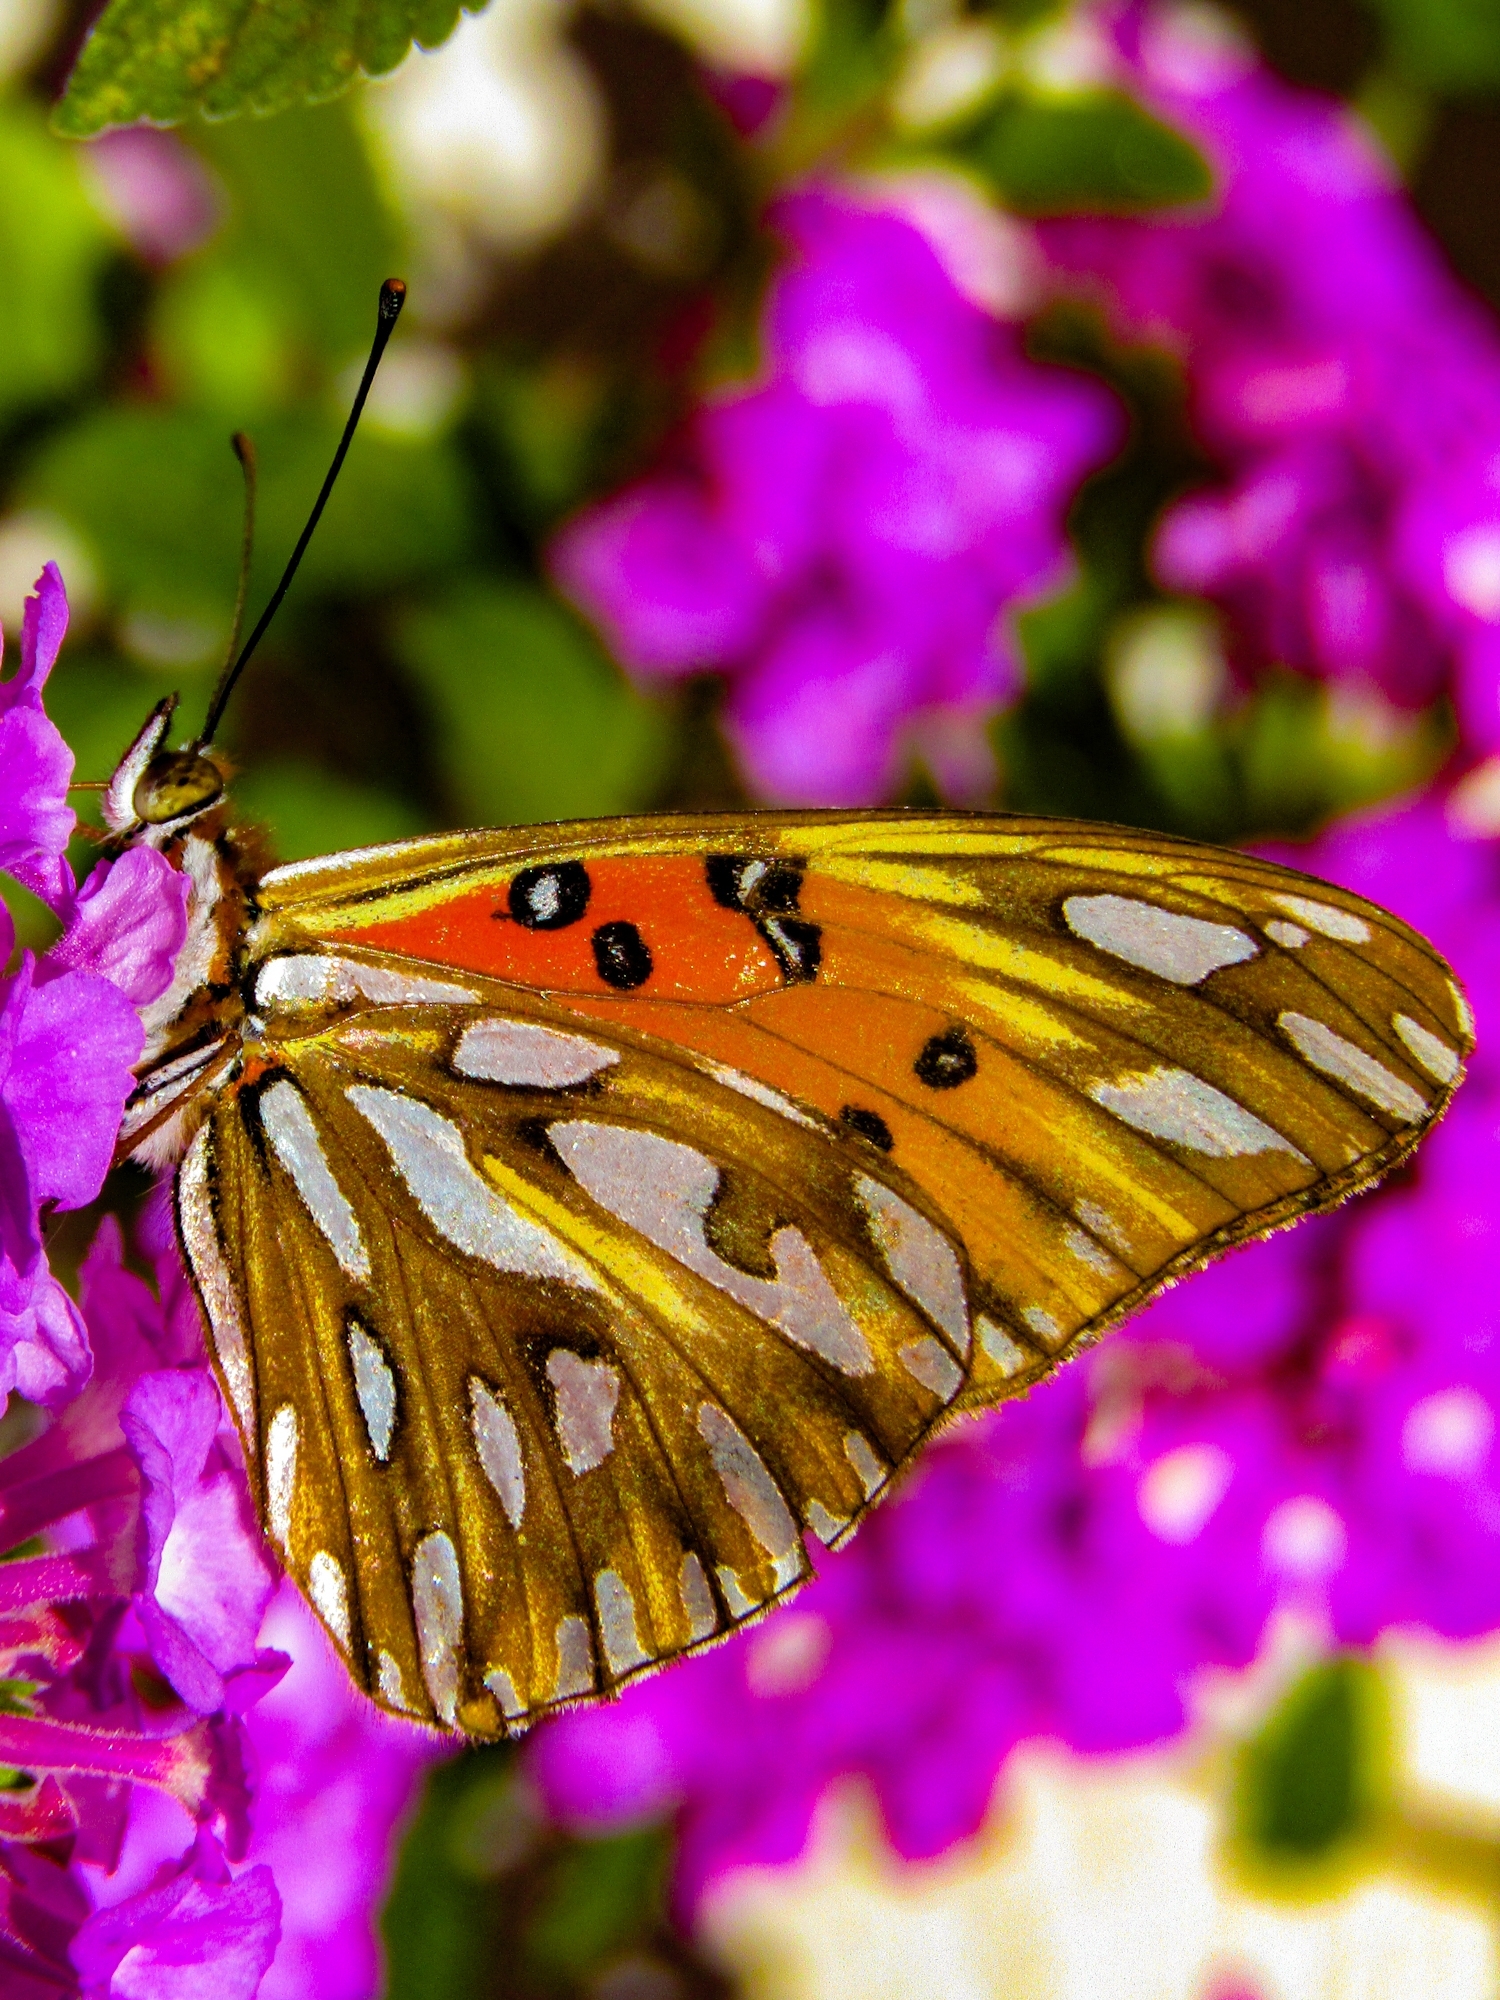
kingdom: Animalia
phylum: Arthropoda
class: Insecta
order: Lepidoptera
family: Nymphalidae
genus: Dione
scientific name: Dione vanillae
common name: Gulf fritillary
